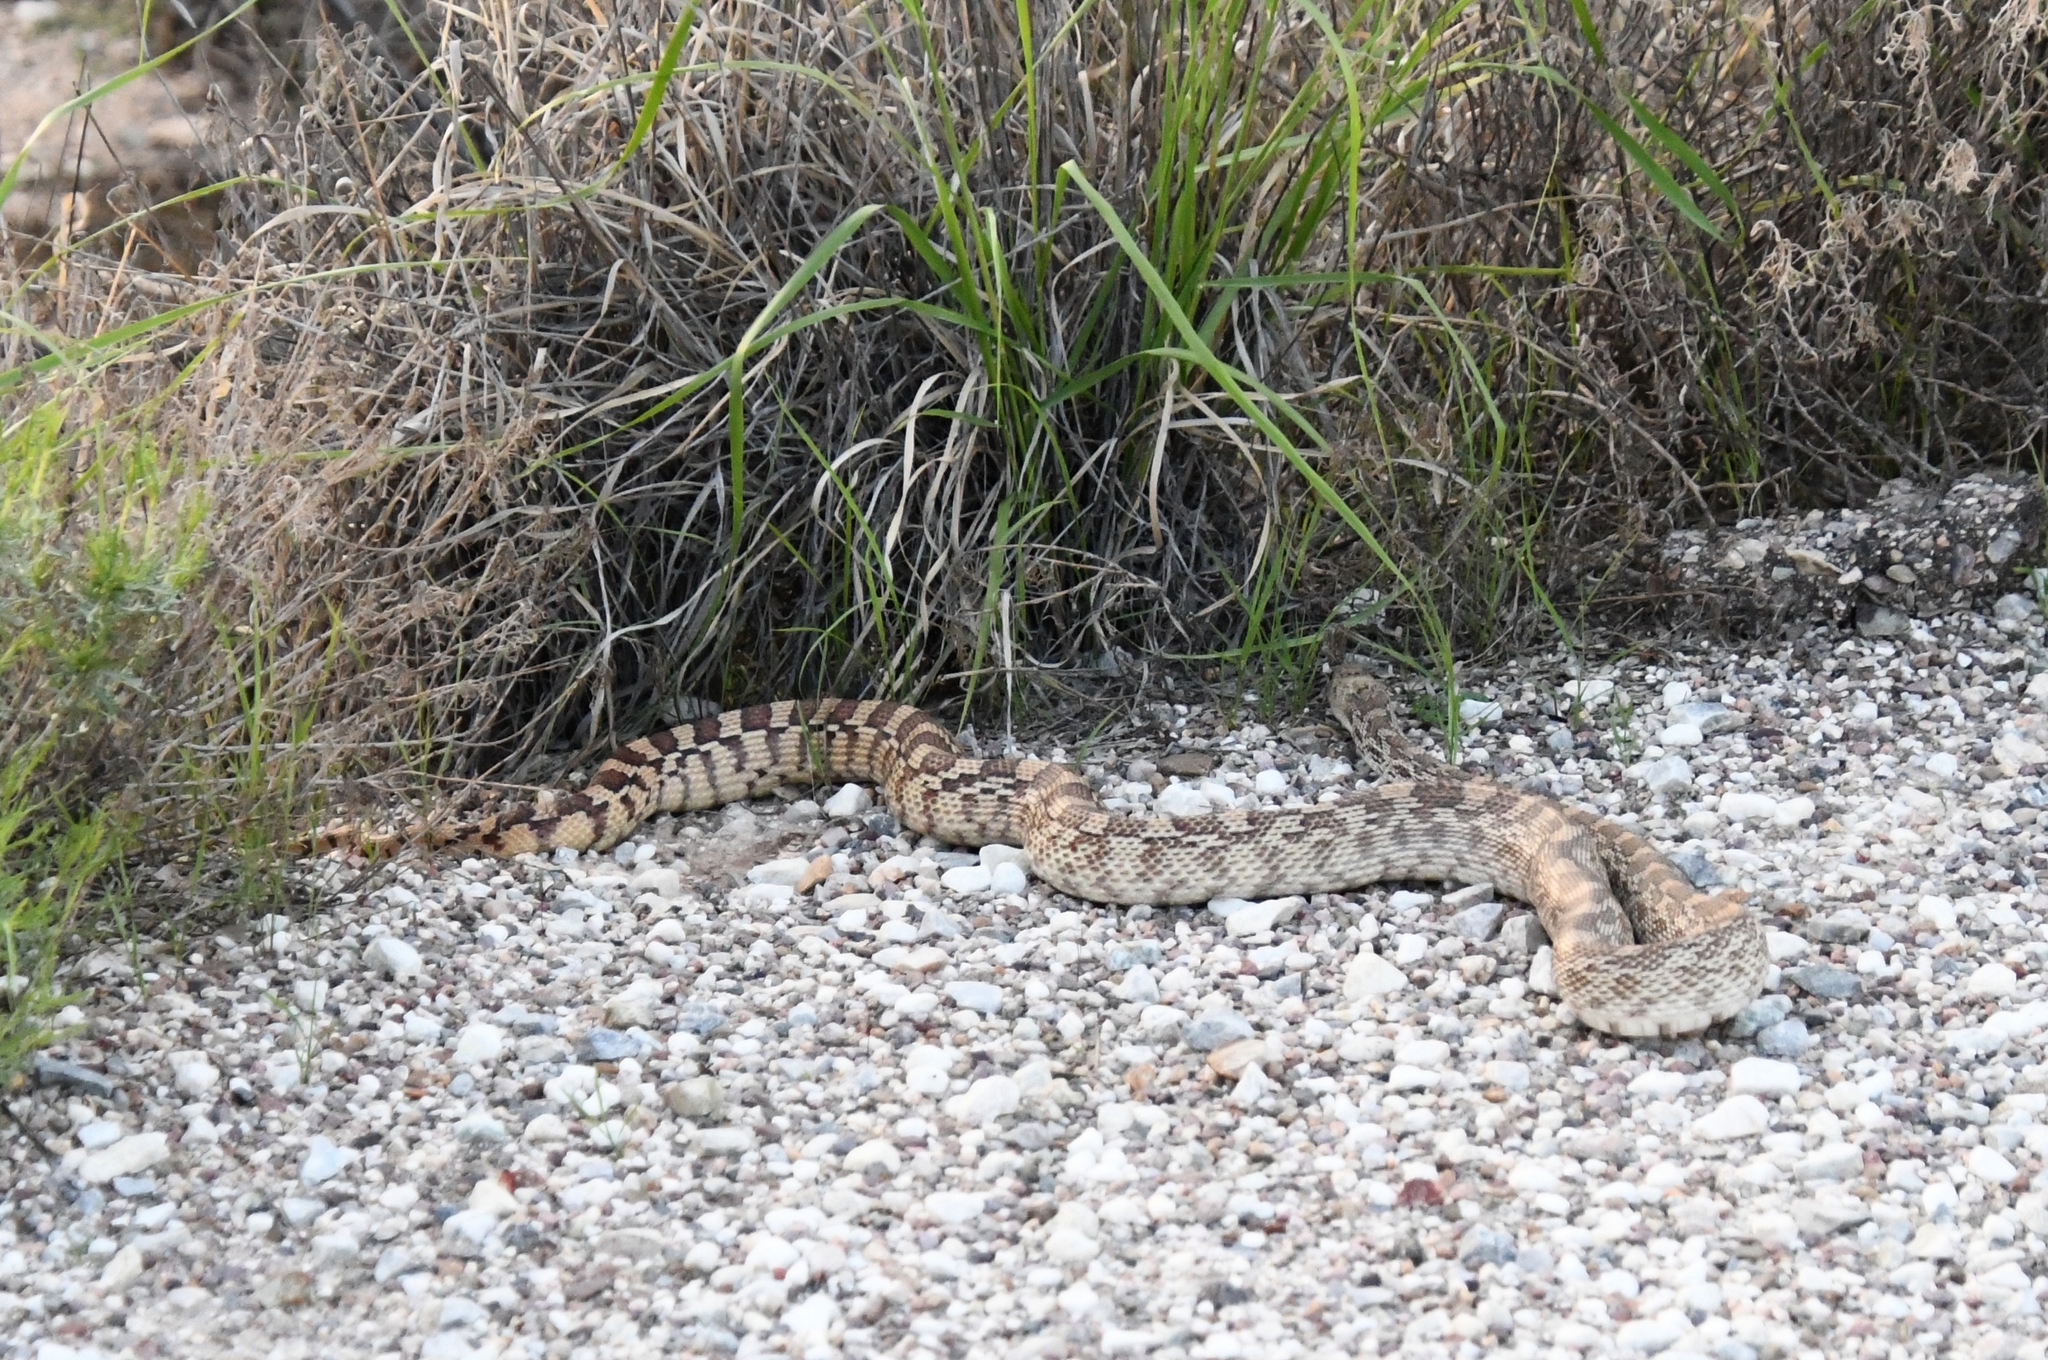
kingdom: Animalia
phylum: Chordata
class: Squamata
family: Colubridae
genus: Pituophis
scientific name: Pituophis catenifer
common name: Gopher snake
